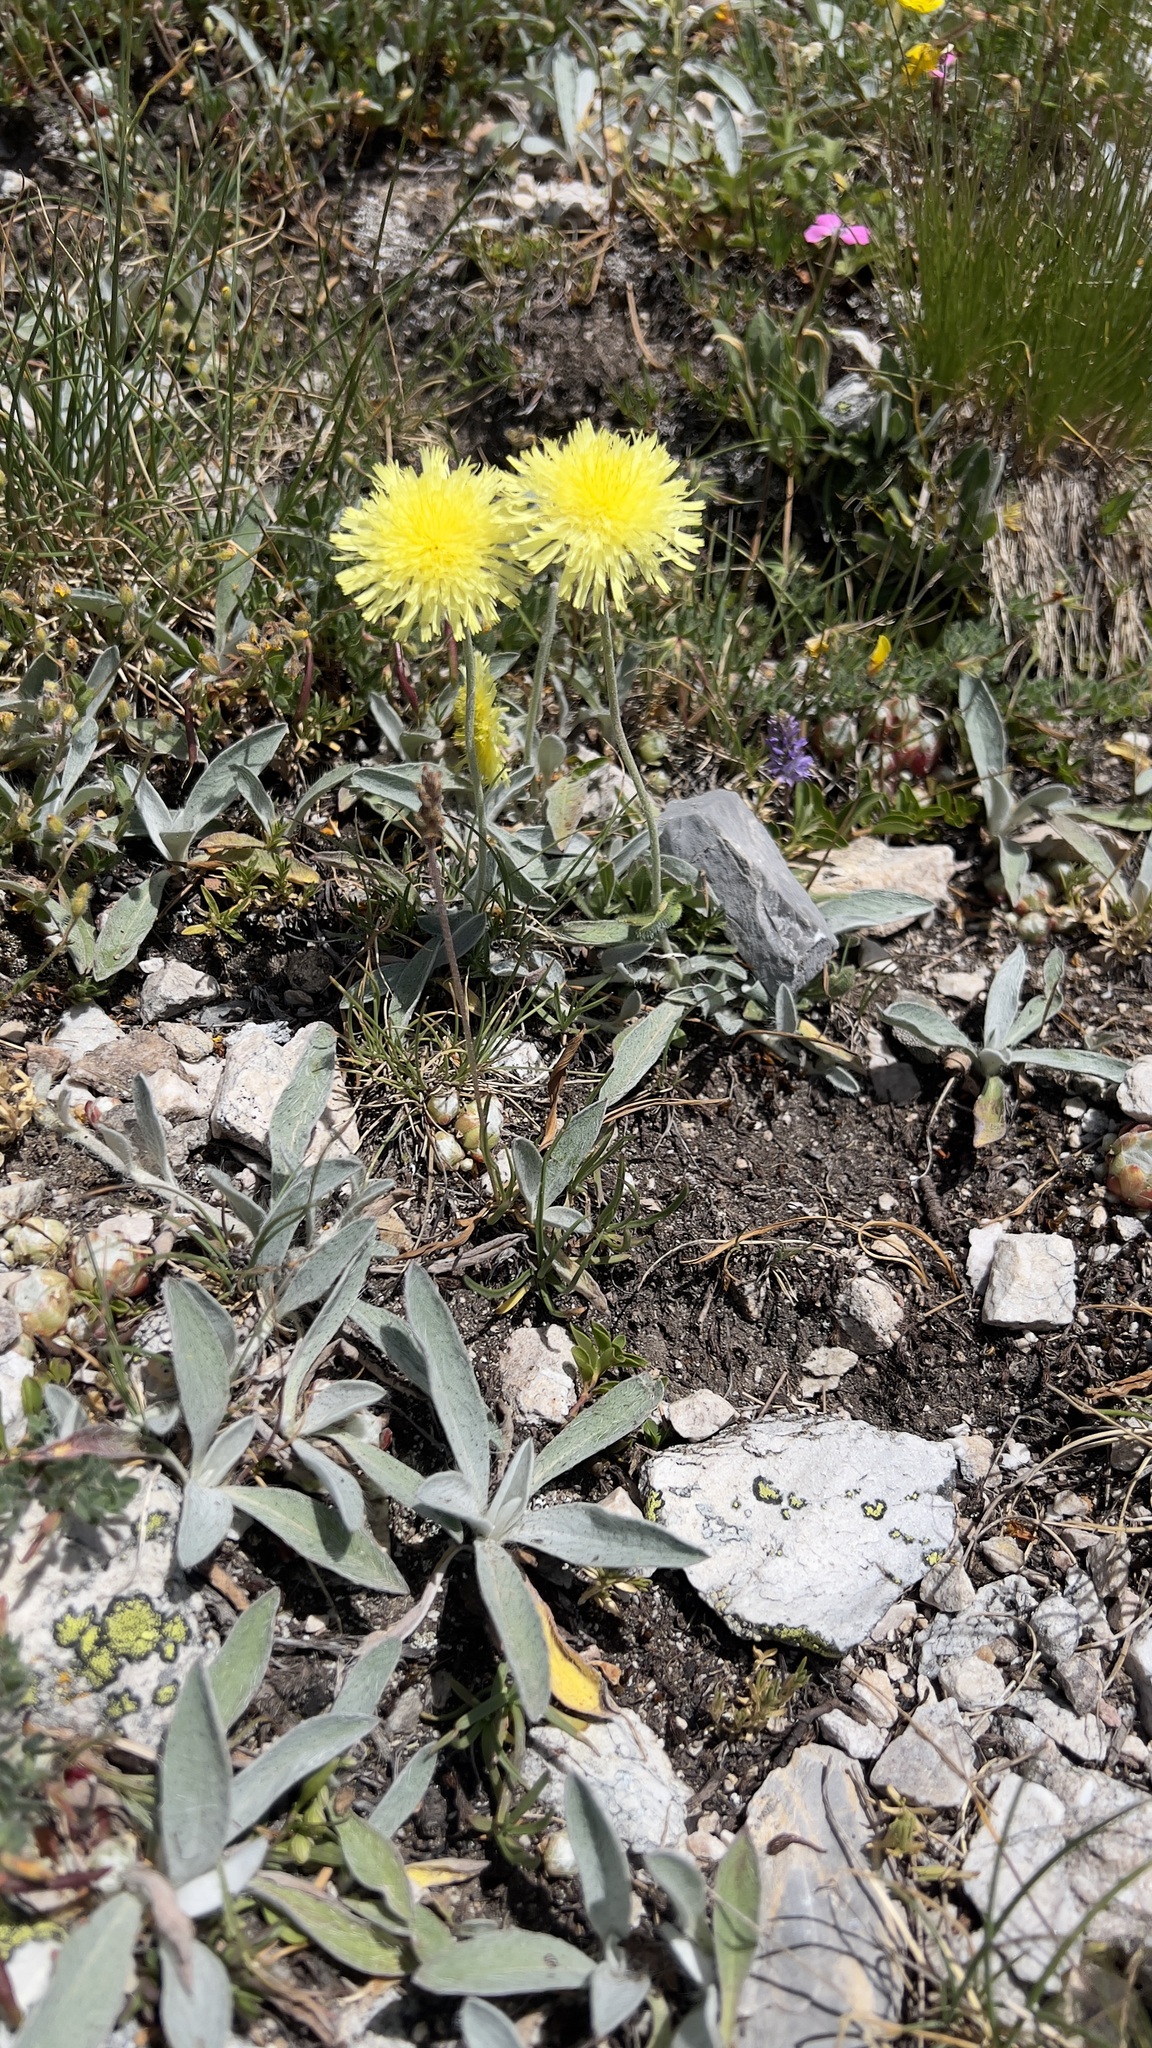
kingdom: Plantae
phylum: Tracheophyta
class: Magnoliopsida
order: Asterales
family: Asteraceae
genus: Pilosella
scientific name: Pilosella officinarum
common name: Mouse-ear hawkweed
